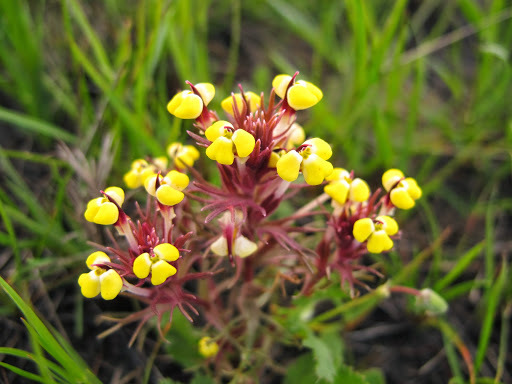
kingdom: Plantae
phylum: Tracheophyta
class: Magnoliopsida
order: Lamiales
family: Orobanchaceae
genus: Triphysaria
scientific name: Triphysaria eriantha
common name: Johnny-tuck
